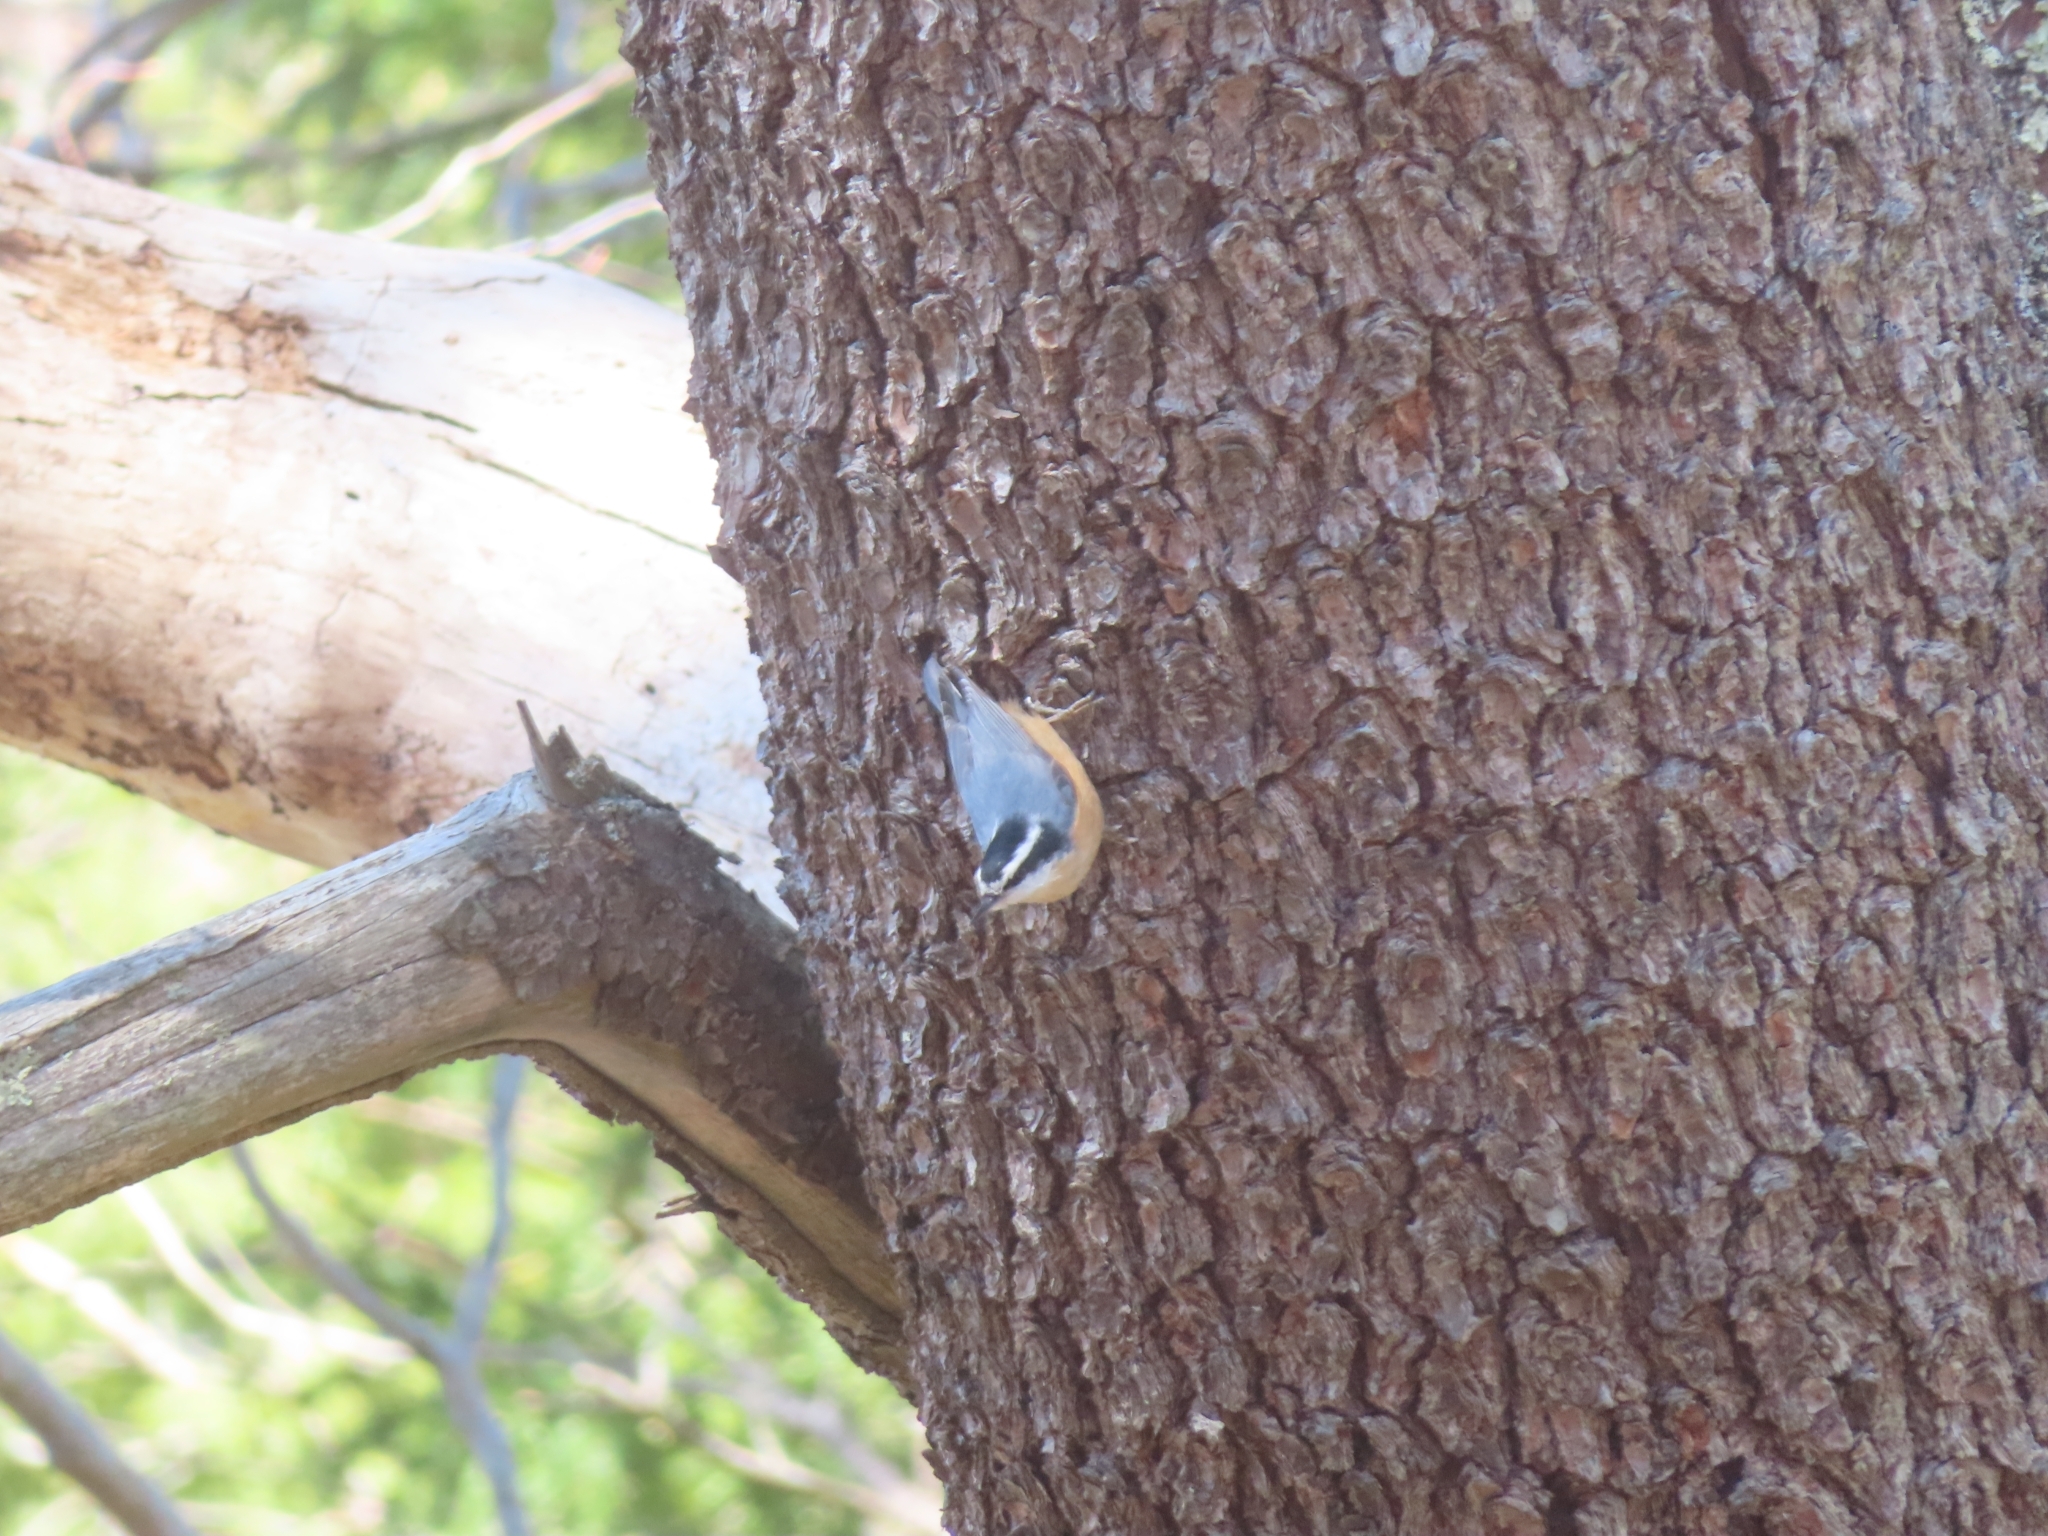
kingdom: Animalia
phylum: Chordata
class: Aves
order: Passeriformes
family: Sittidae
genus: Sitta
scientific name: Sitta canadensis
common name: Red-breasted nuthatch
